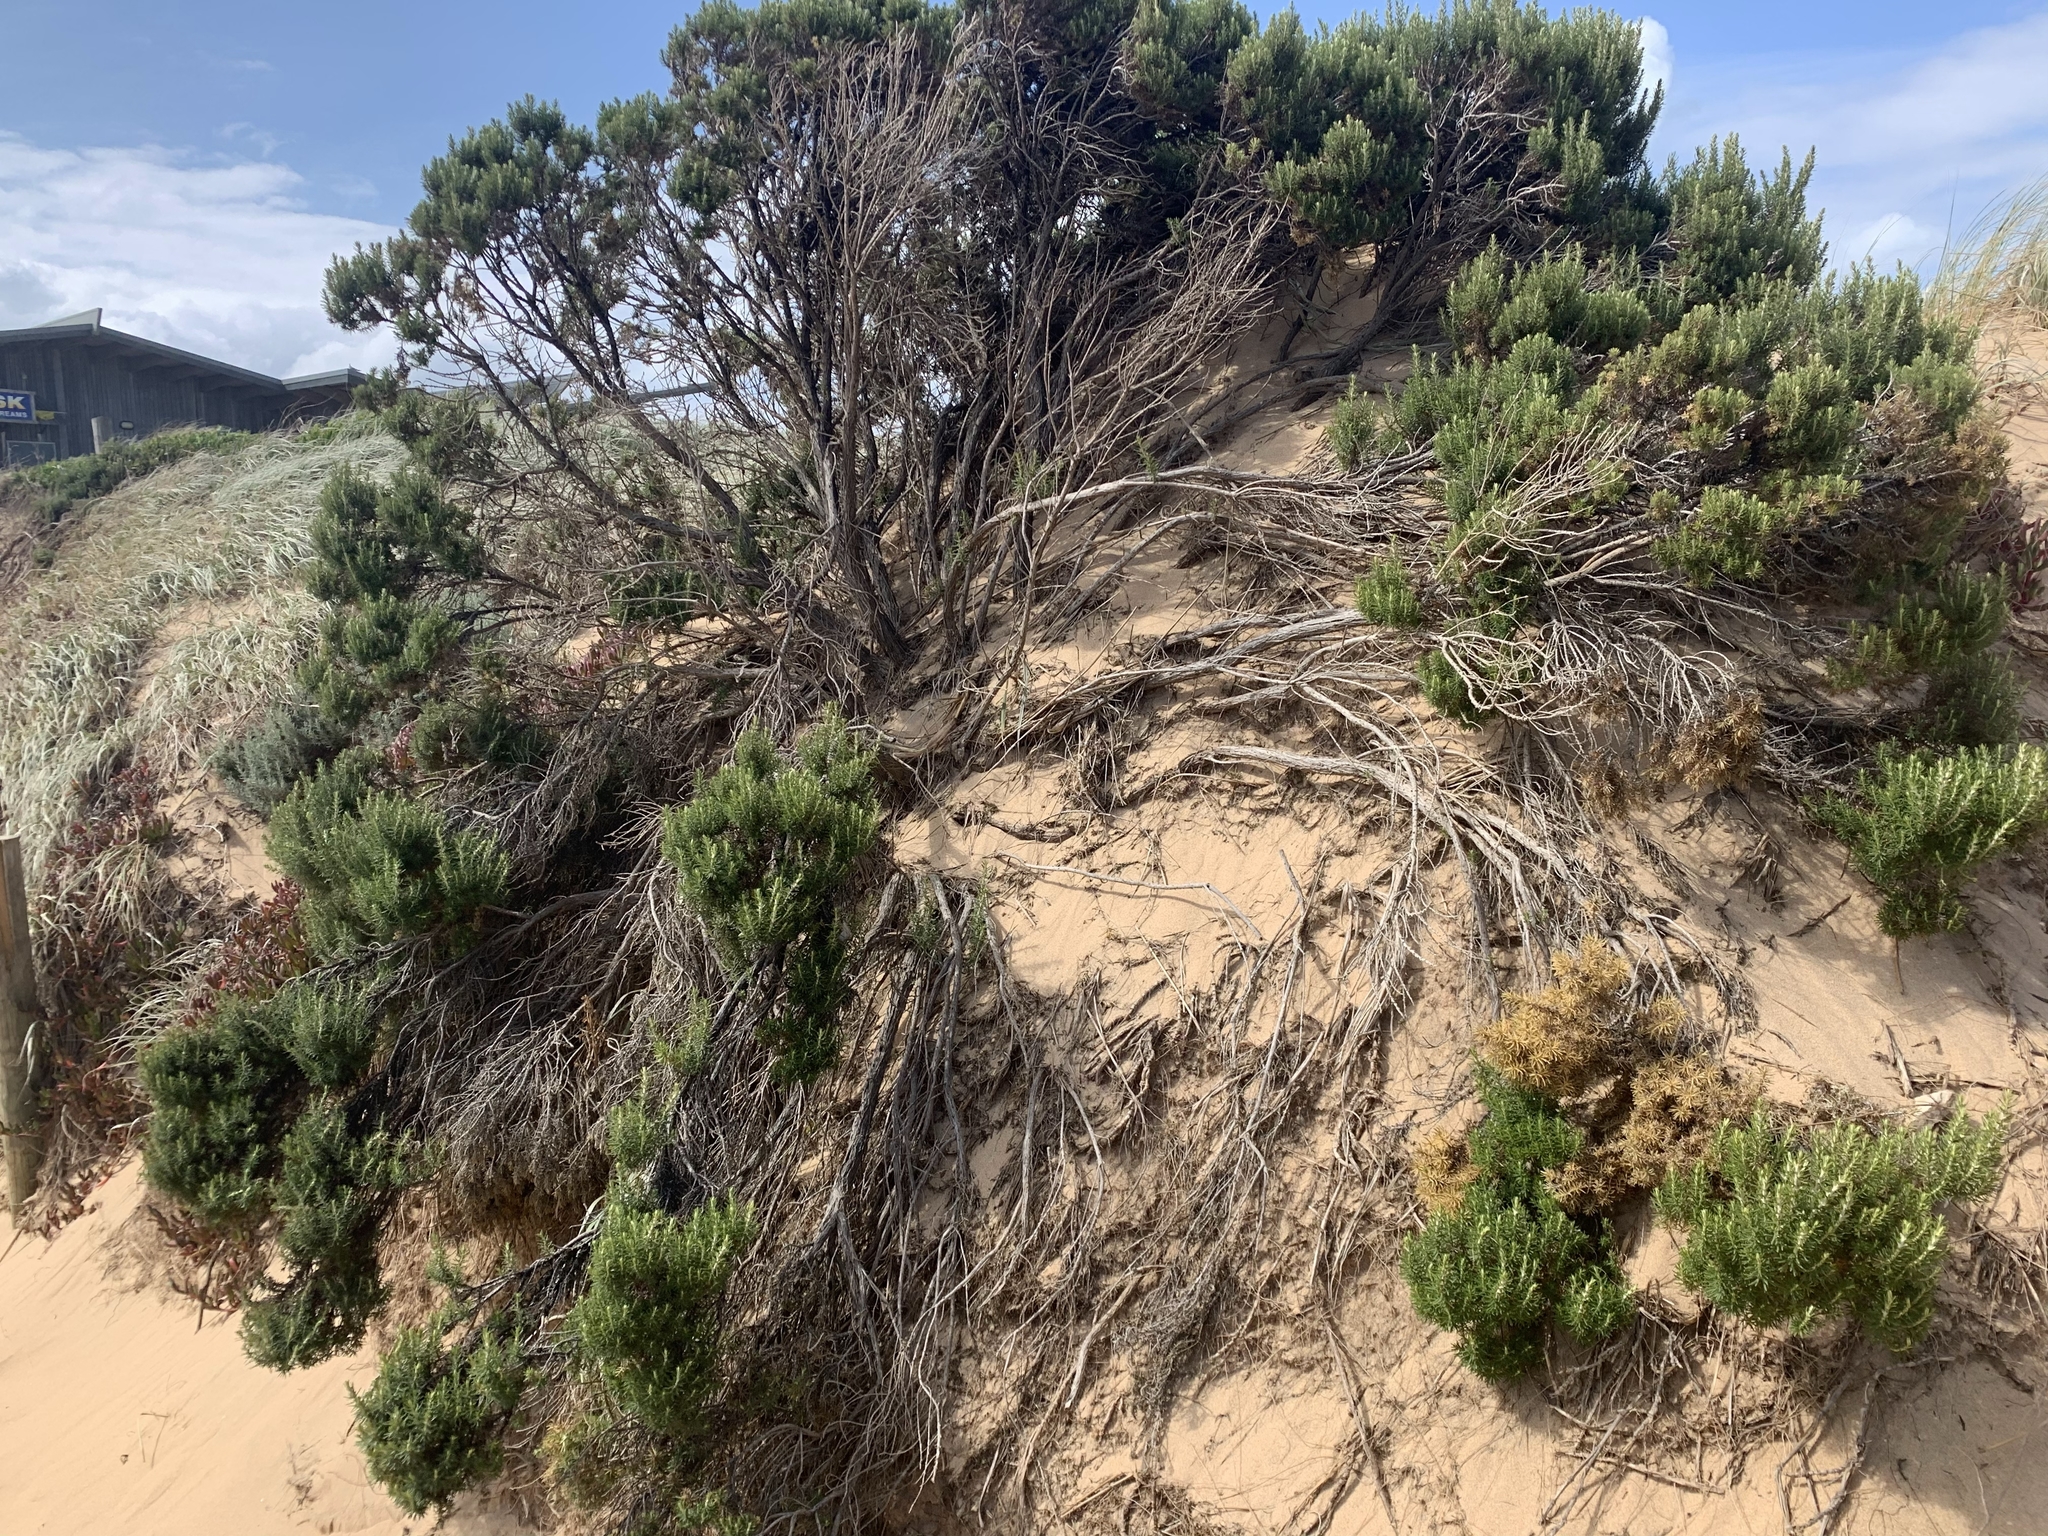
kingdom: Plantae
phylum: Tracheophyta
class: Magnoliopsida
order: Asterales
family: Asteraceae
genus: Ozothamnus
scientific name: Ozothamnus cinereus
